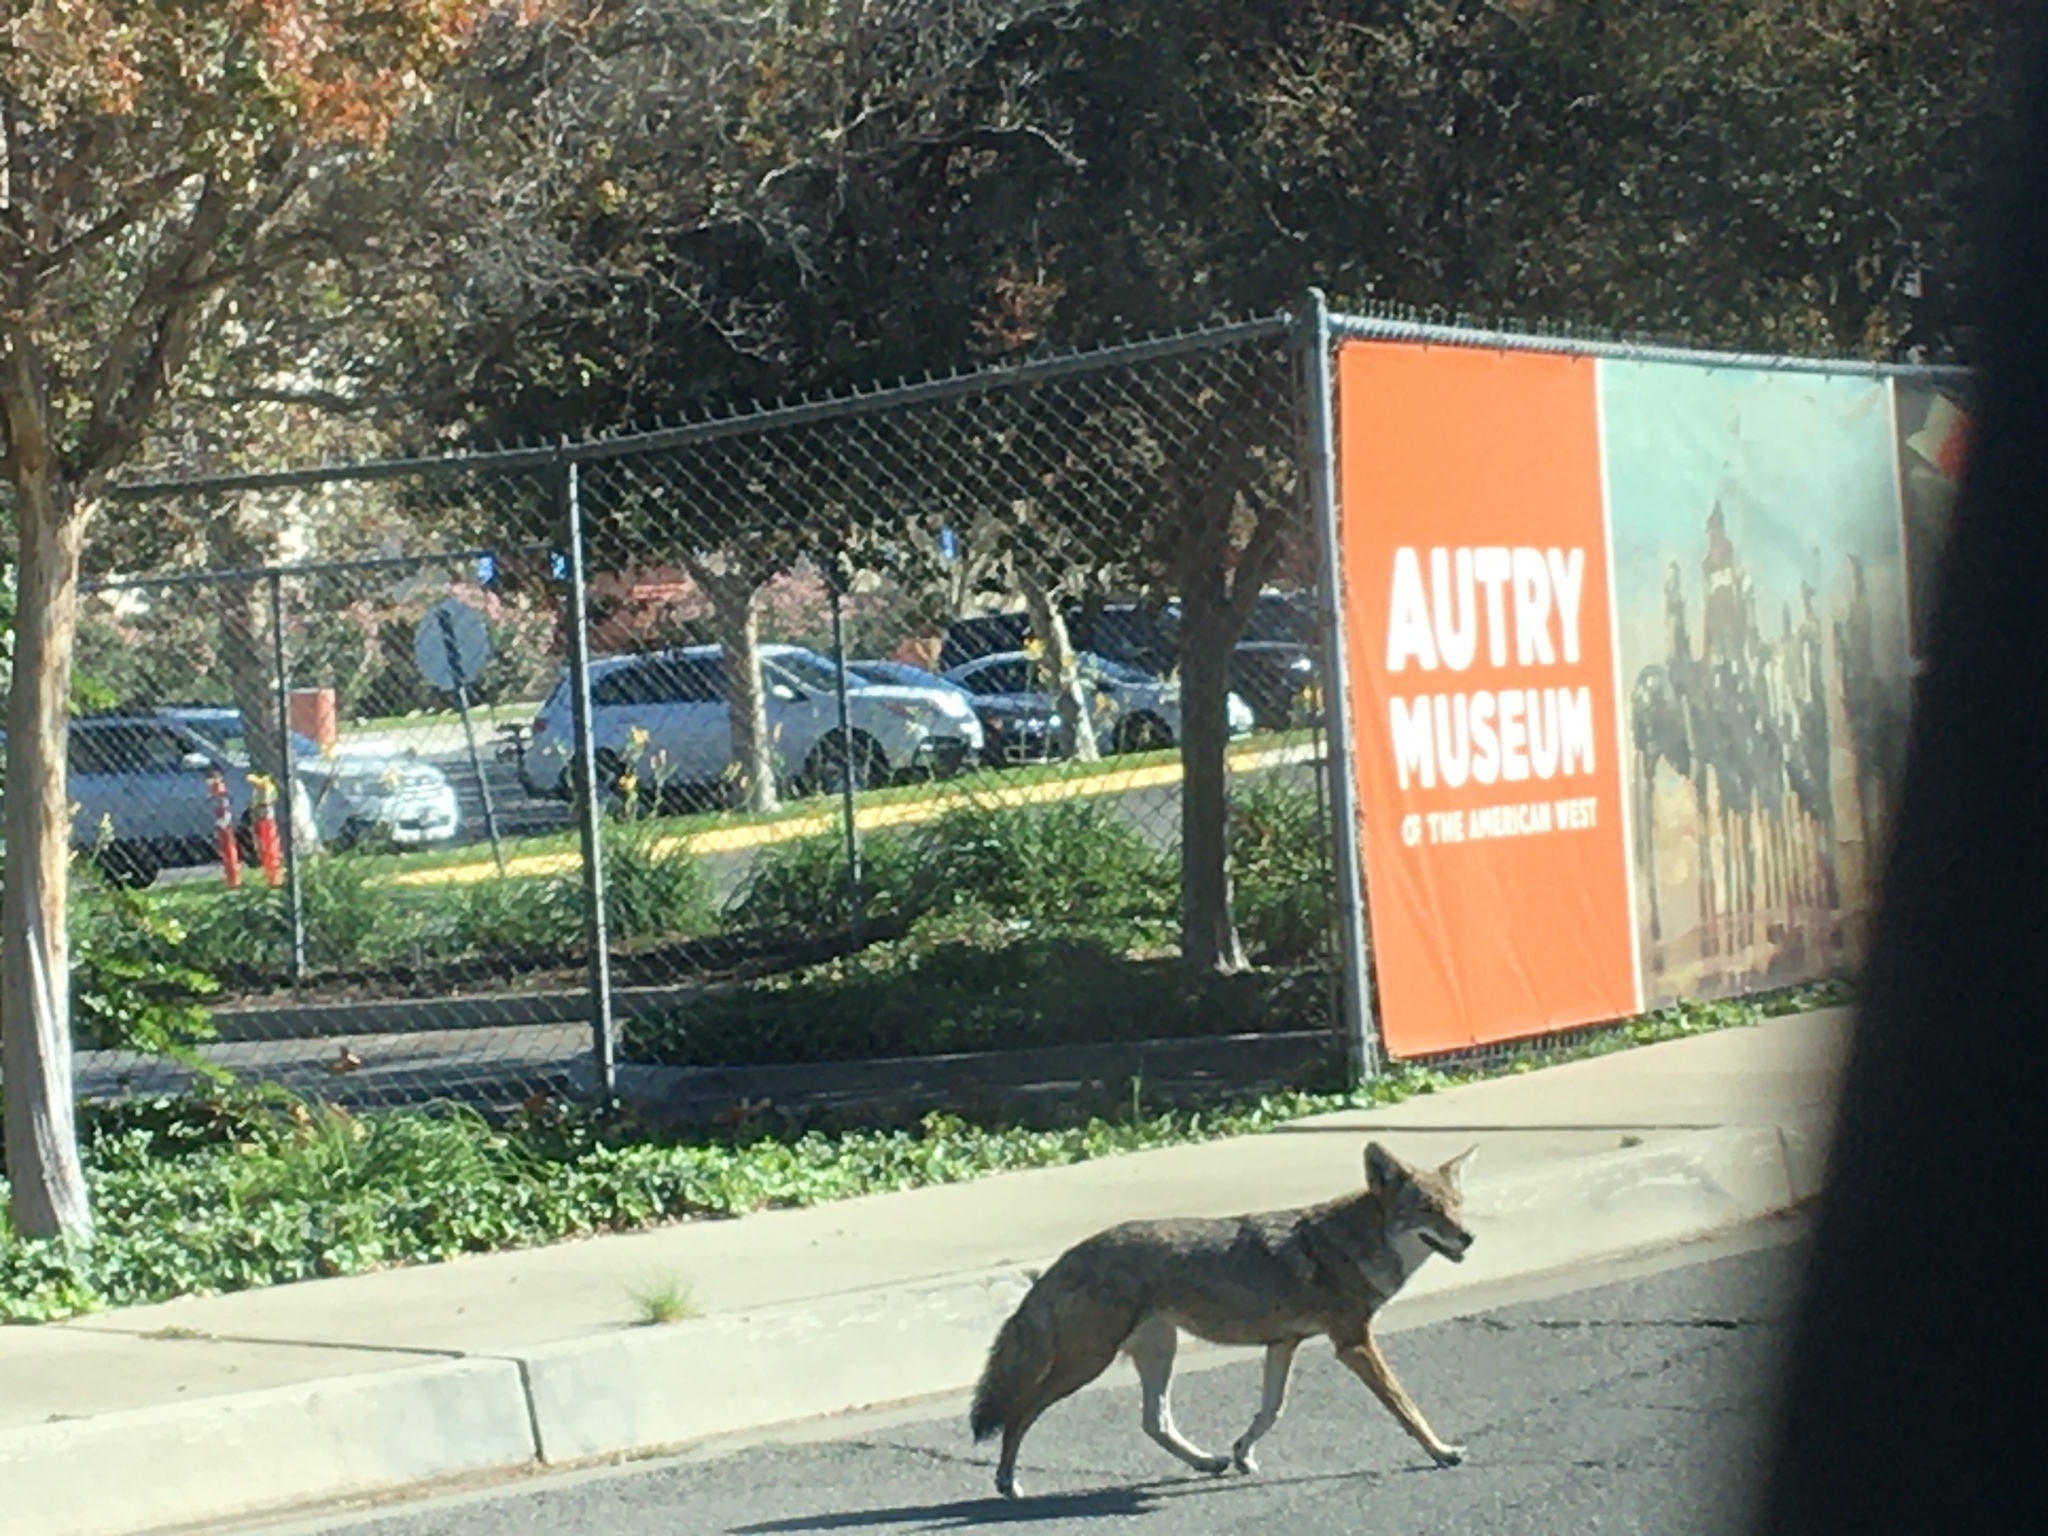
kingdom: Animalia
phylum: Chordata
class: Mammalia
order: Carnivora
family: Canidae
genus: Canis
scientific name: Canis latrans
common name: Coyote
